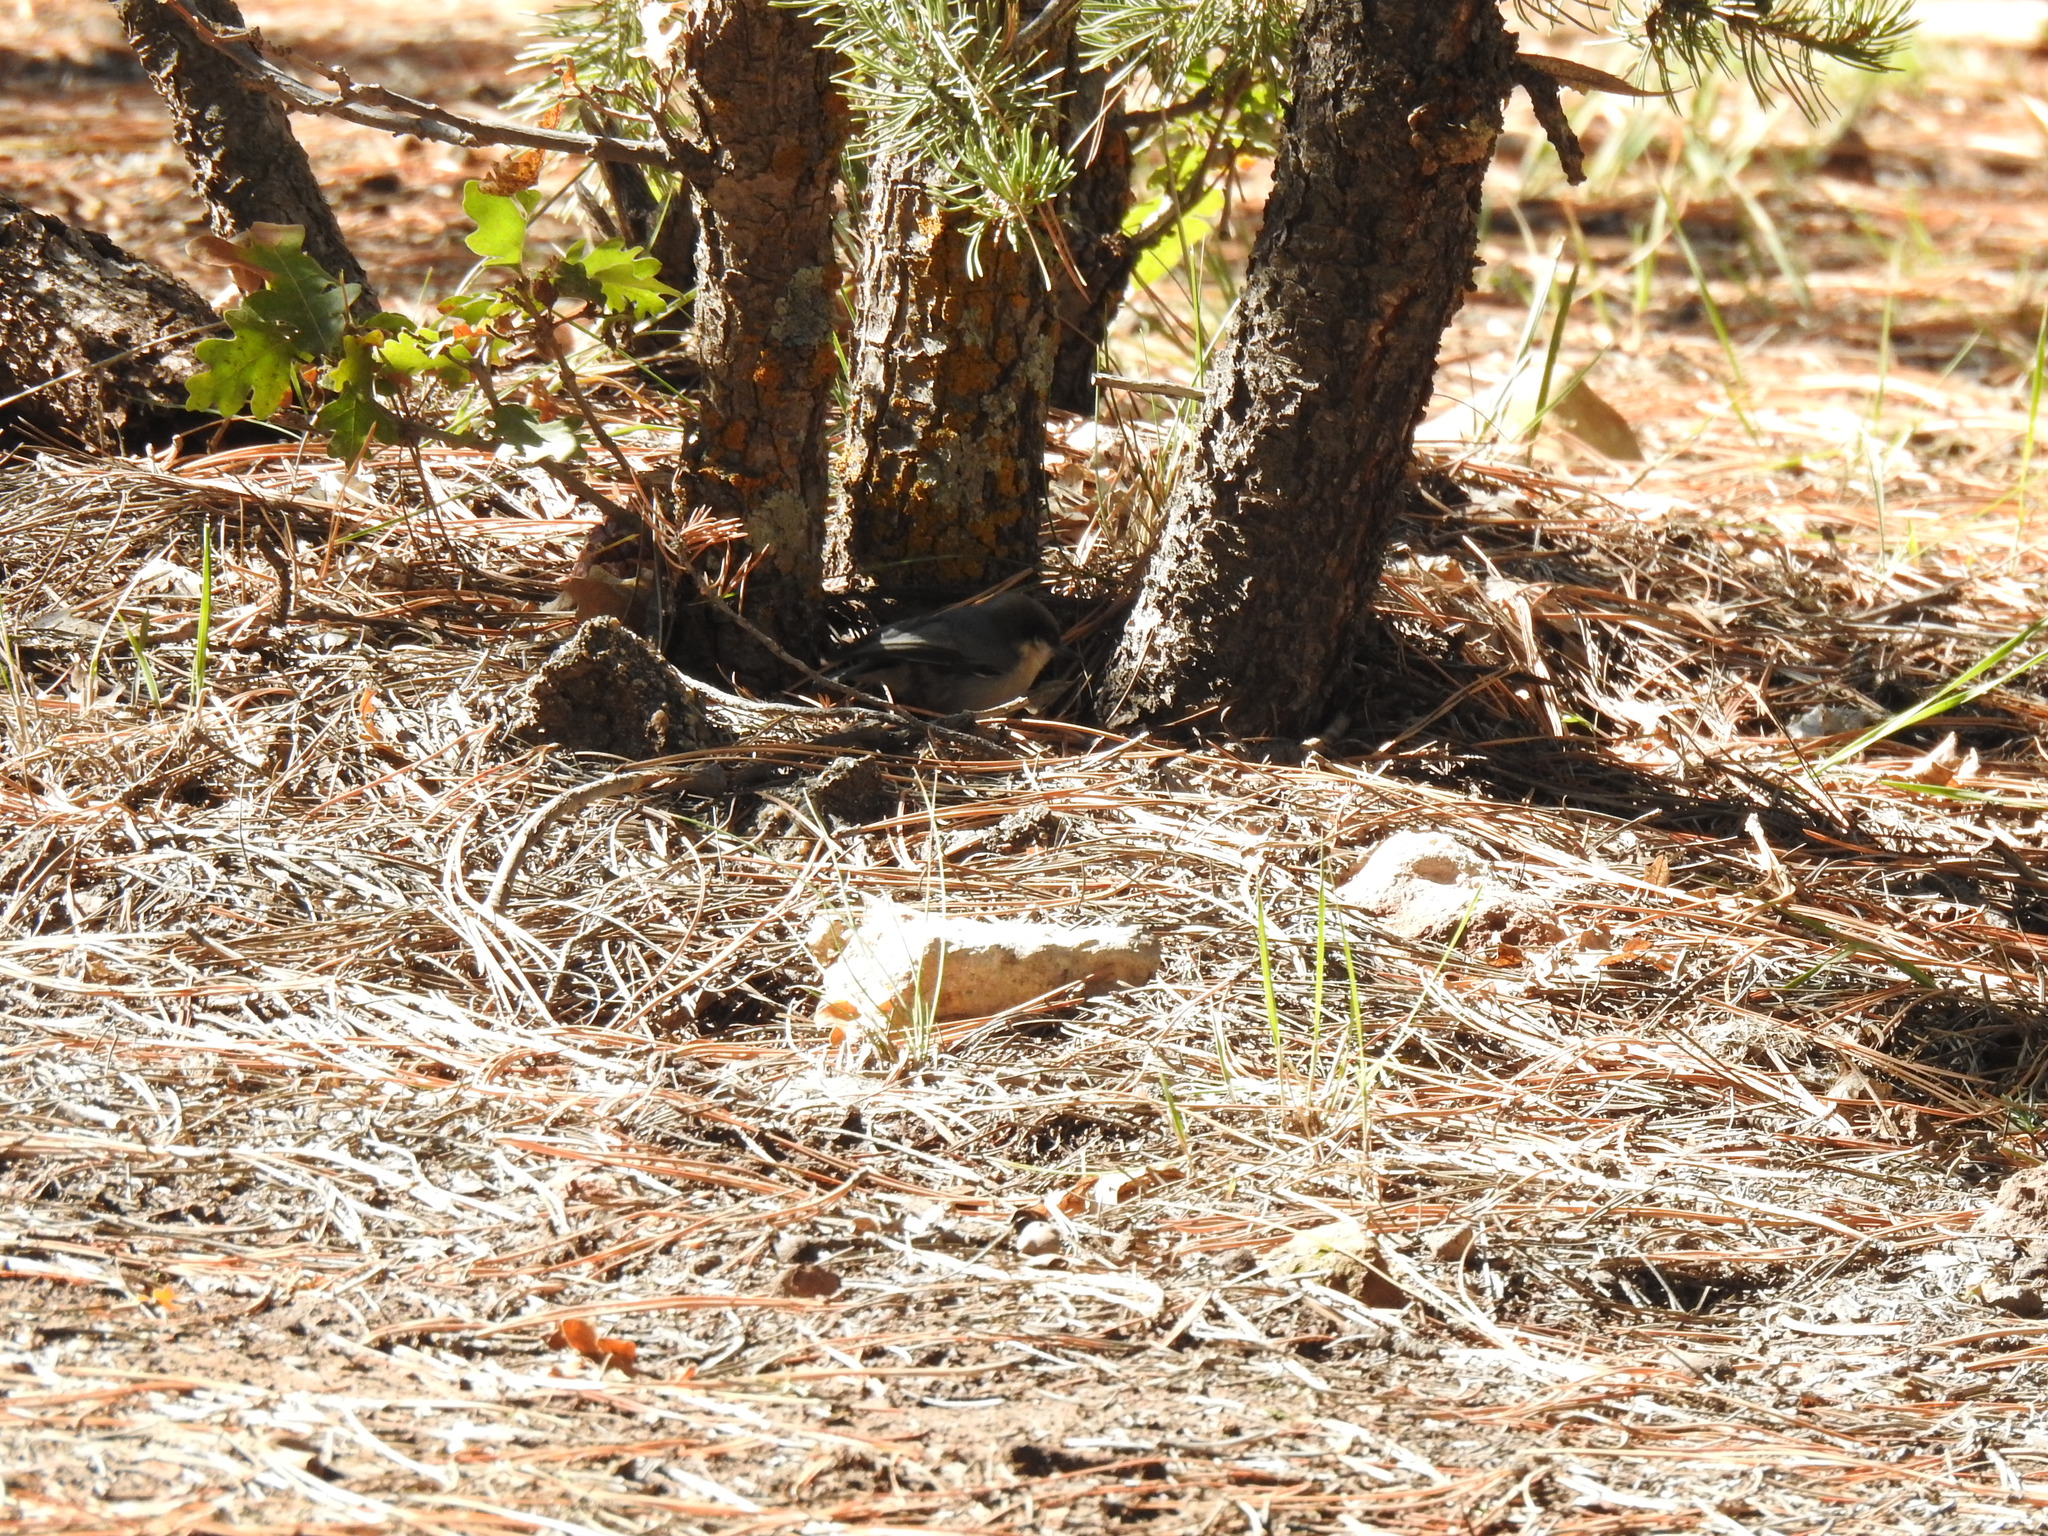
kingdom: Animalia
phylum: Chordata
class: Aves
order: Passeriformes
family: Sittidae
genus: Sitta
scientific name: Sitta pygmaea
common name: Pygmy nuthatch
